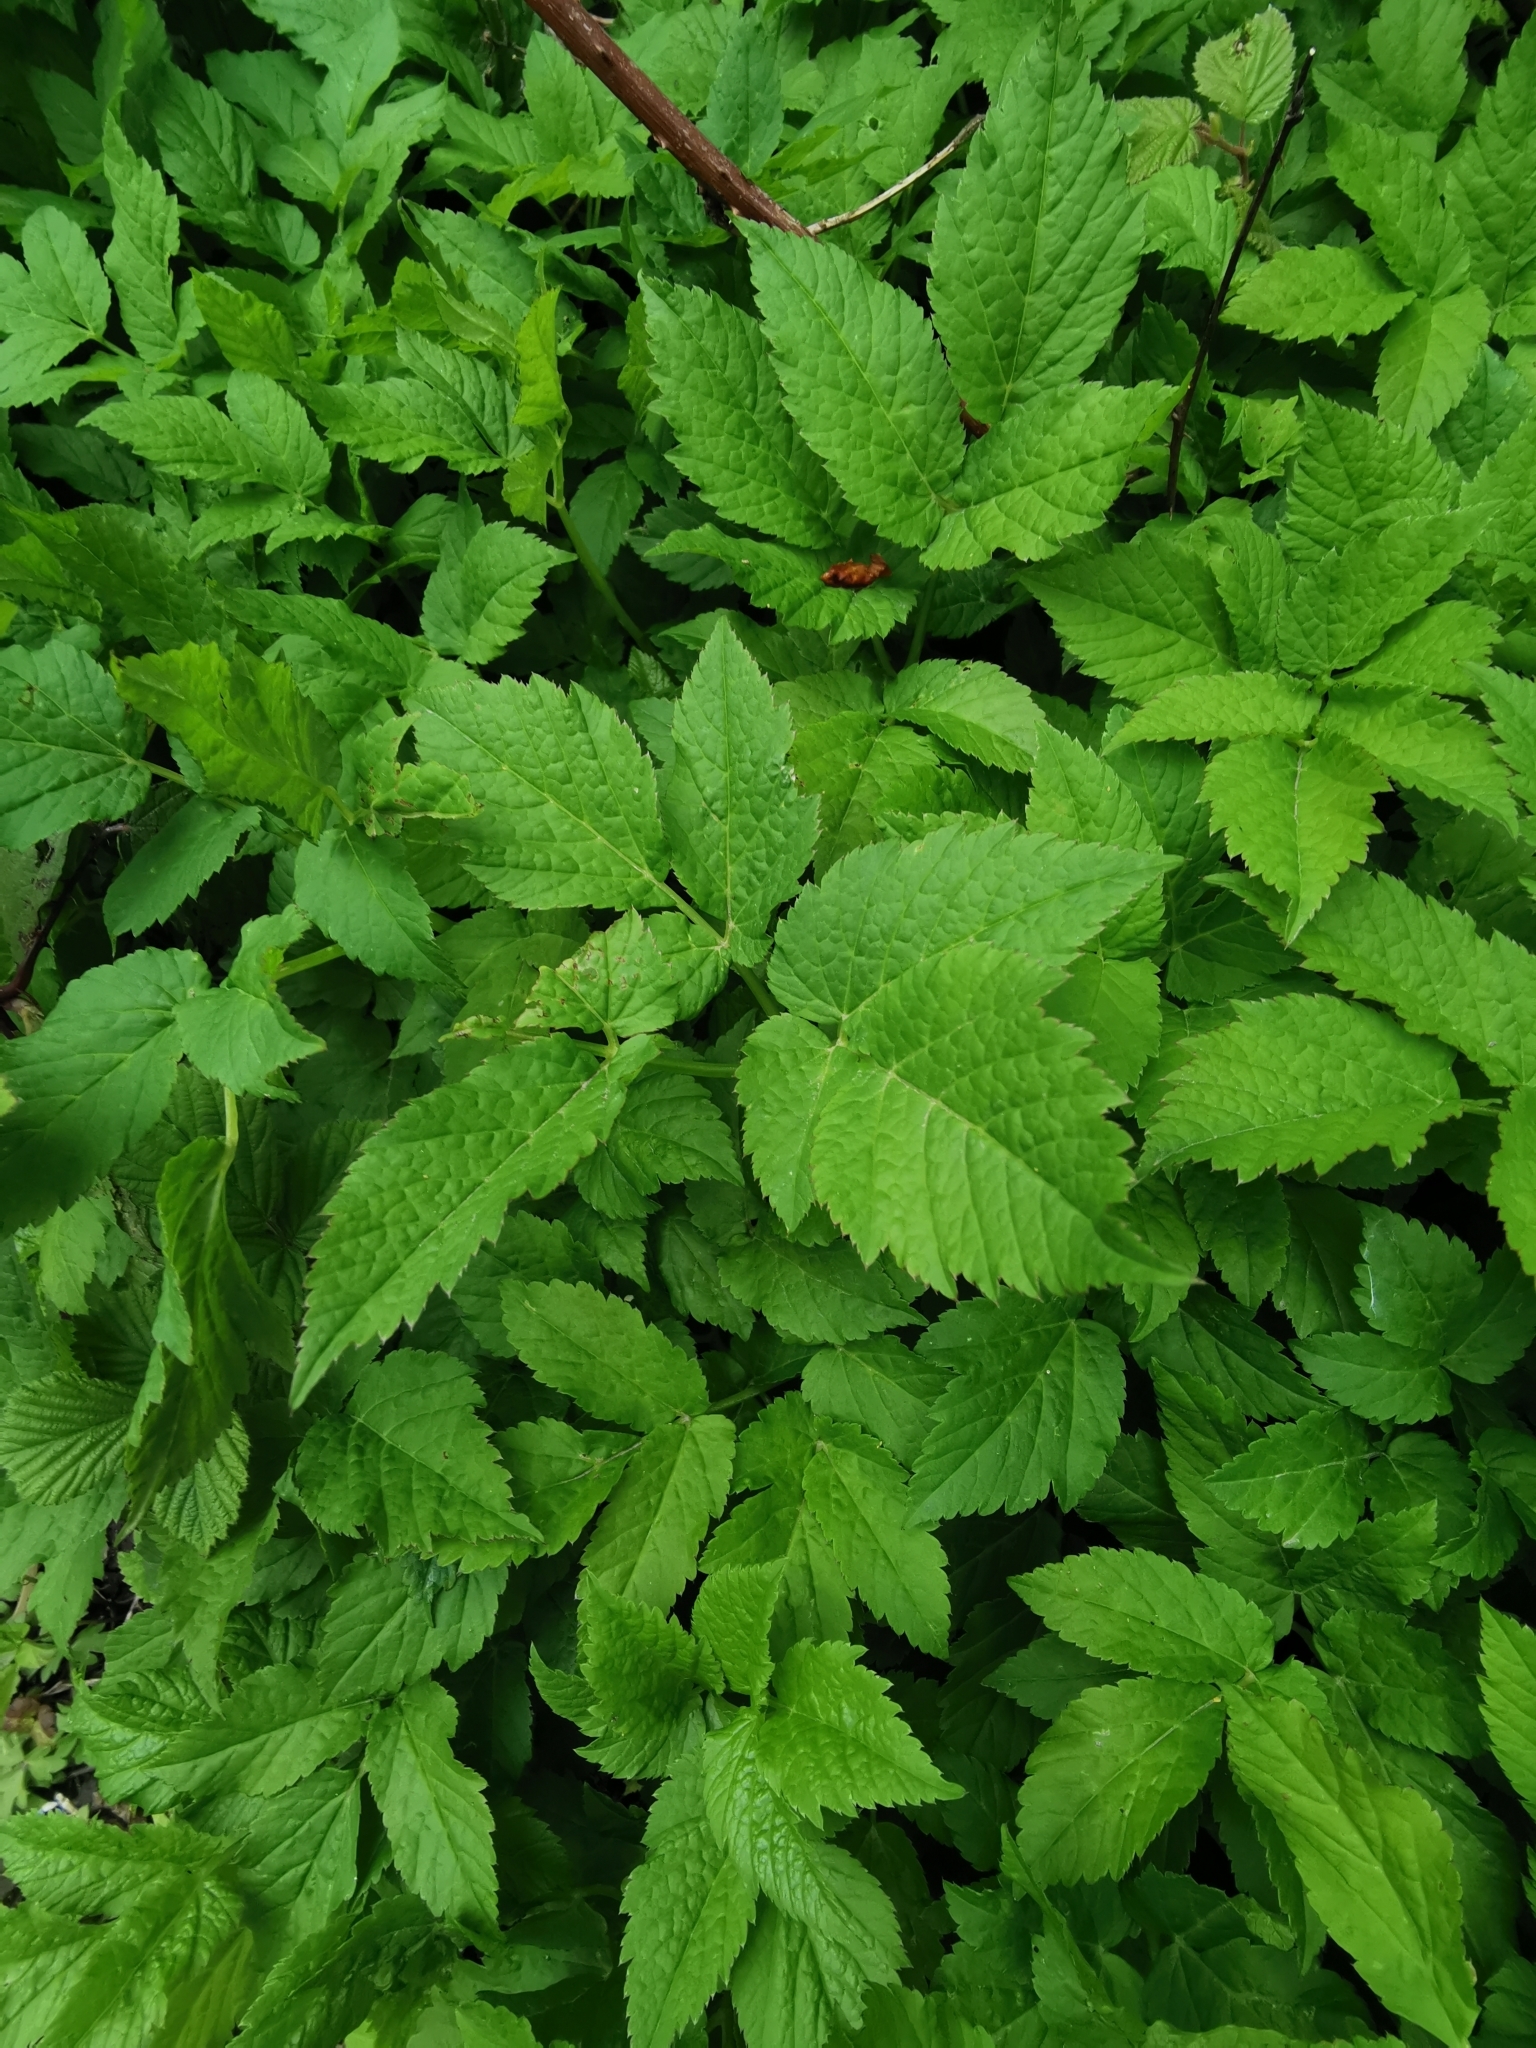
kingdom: Plantae
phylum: Tracheophyta
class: Magnoliopsida
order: Apiales
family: Apiaceae
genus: Aegopodium
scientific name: Aegopodium podagraria
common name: Ground-elder
